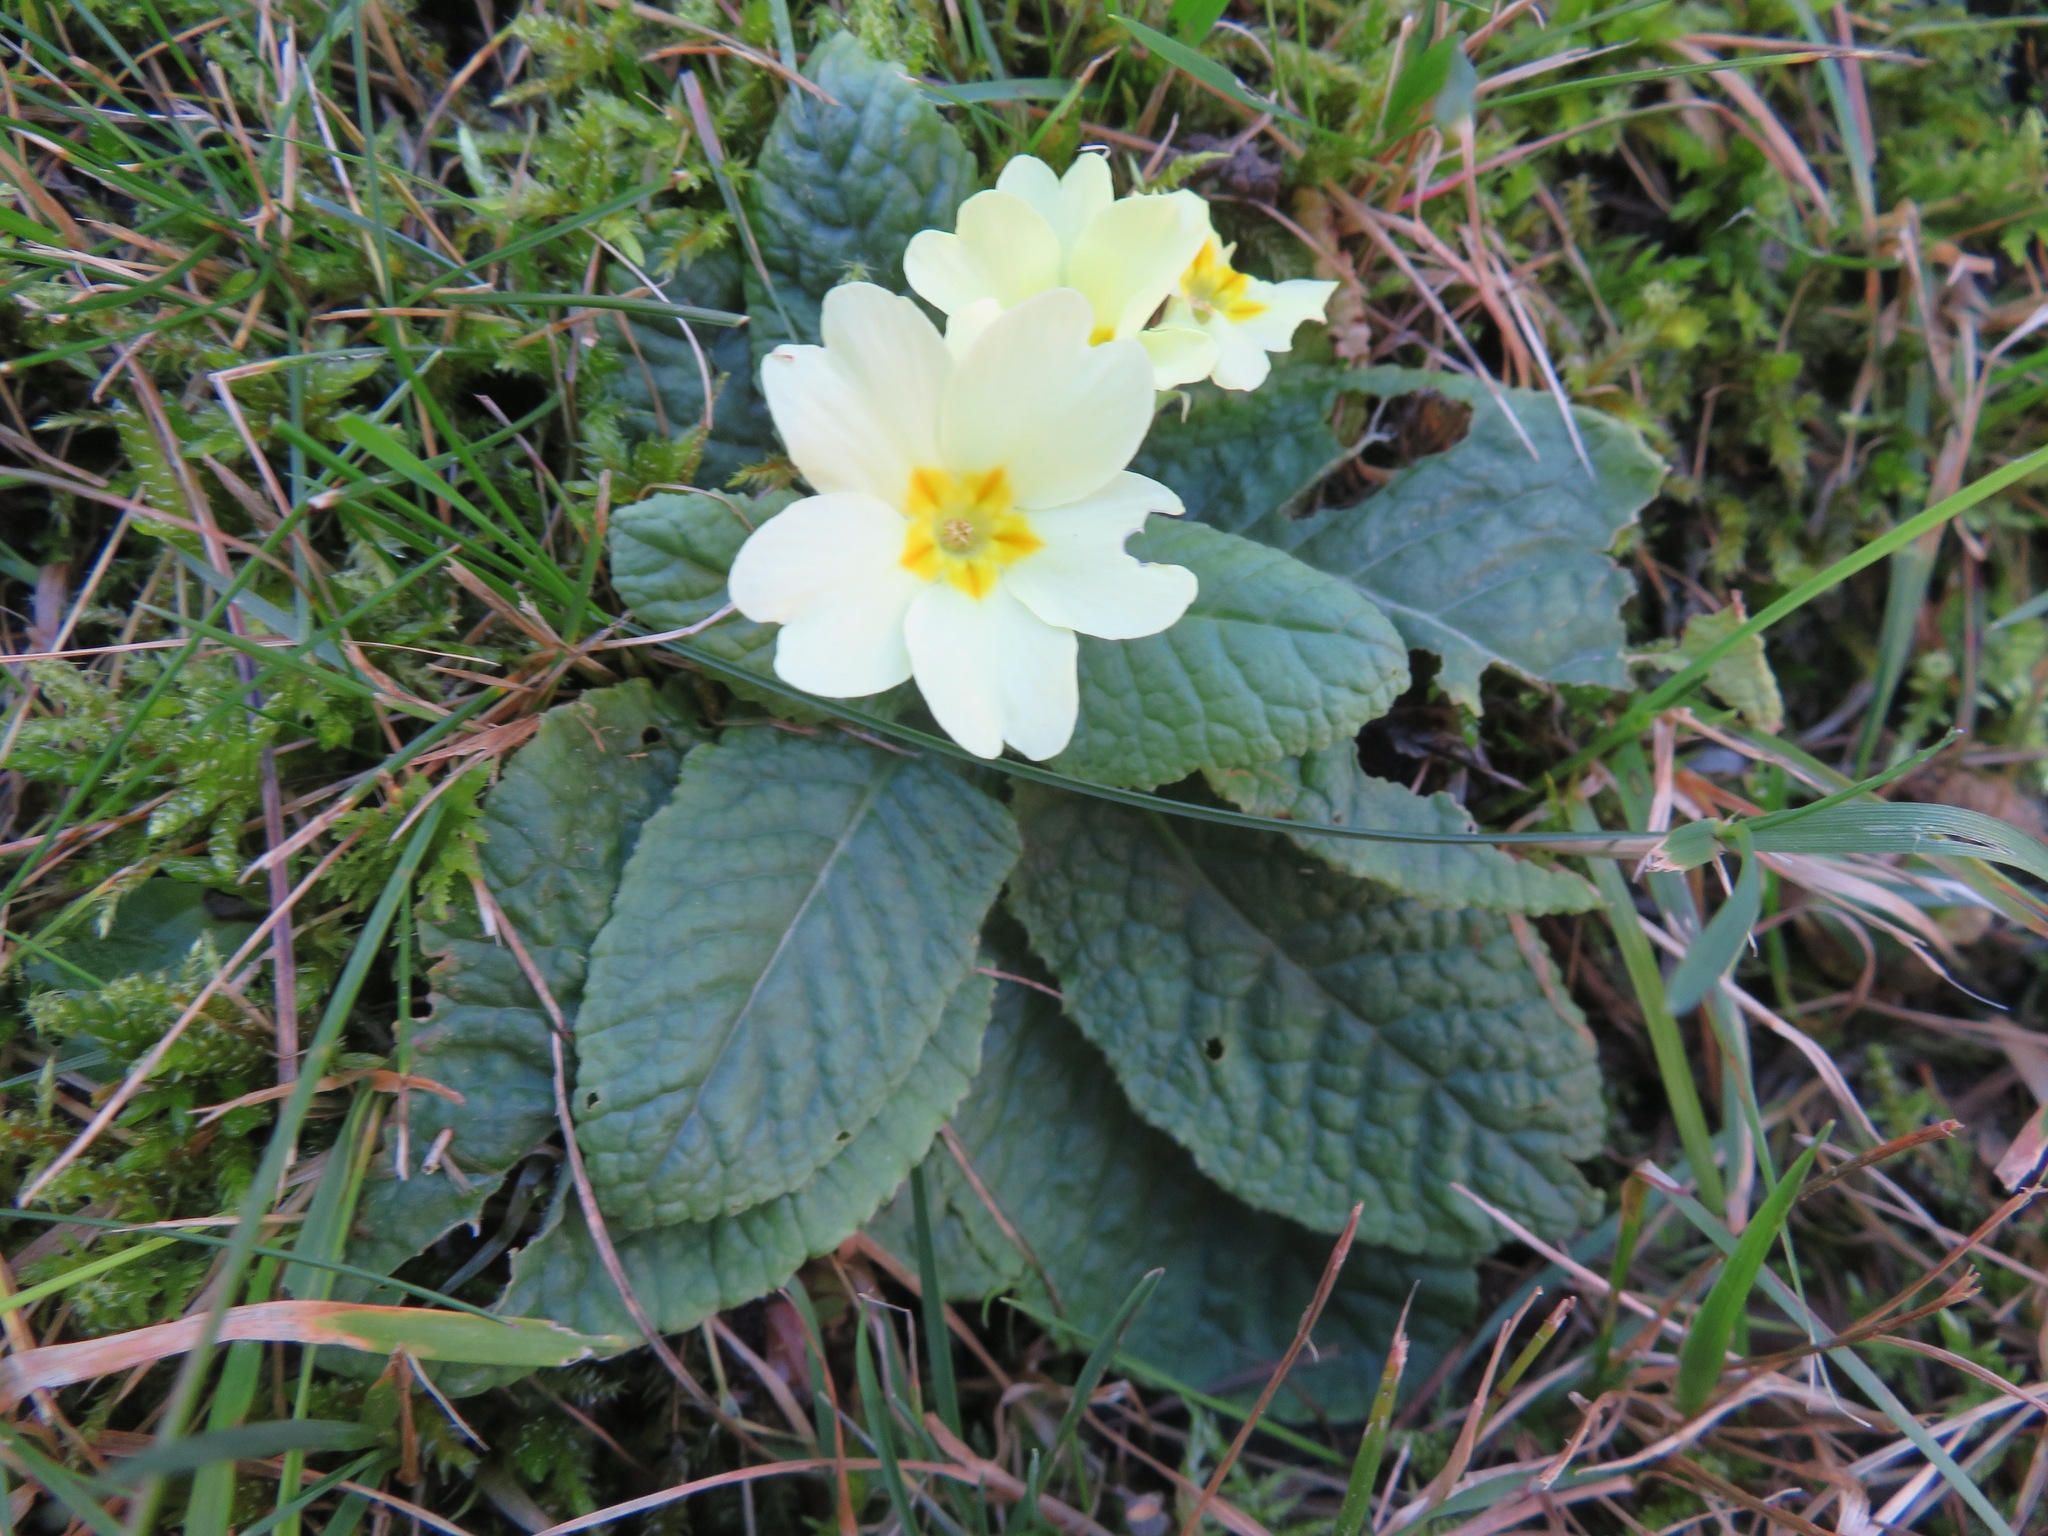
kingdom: Plantae
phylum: Tracheophyta
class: Magnoliopsida
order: Ericales
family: Primulaceae
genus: Primula
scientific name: Primula vulgaris
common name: Primrose
